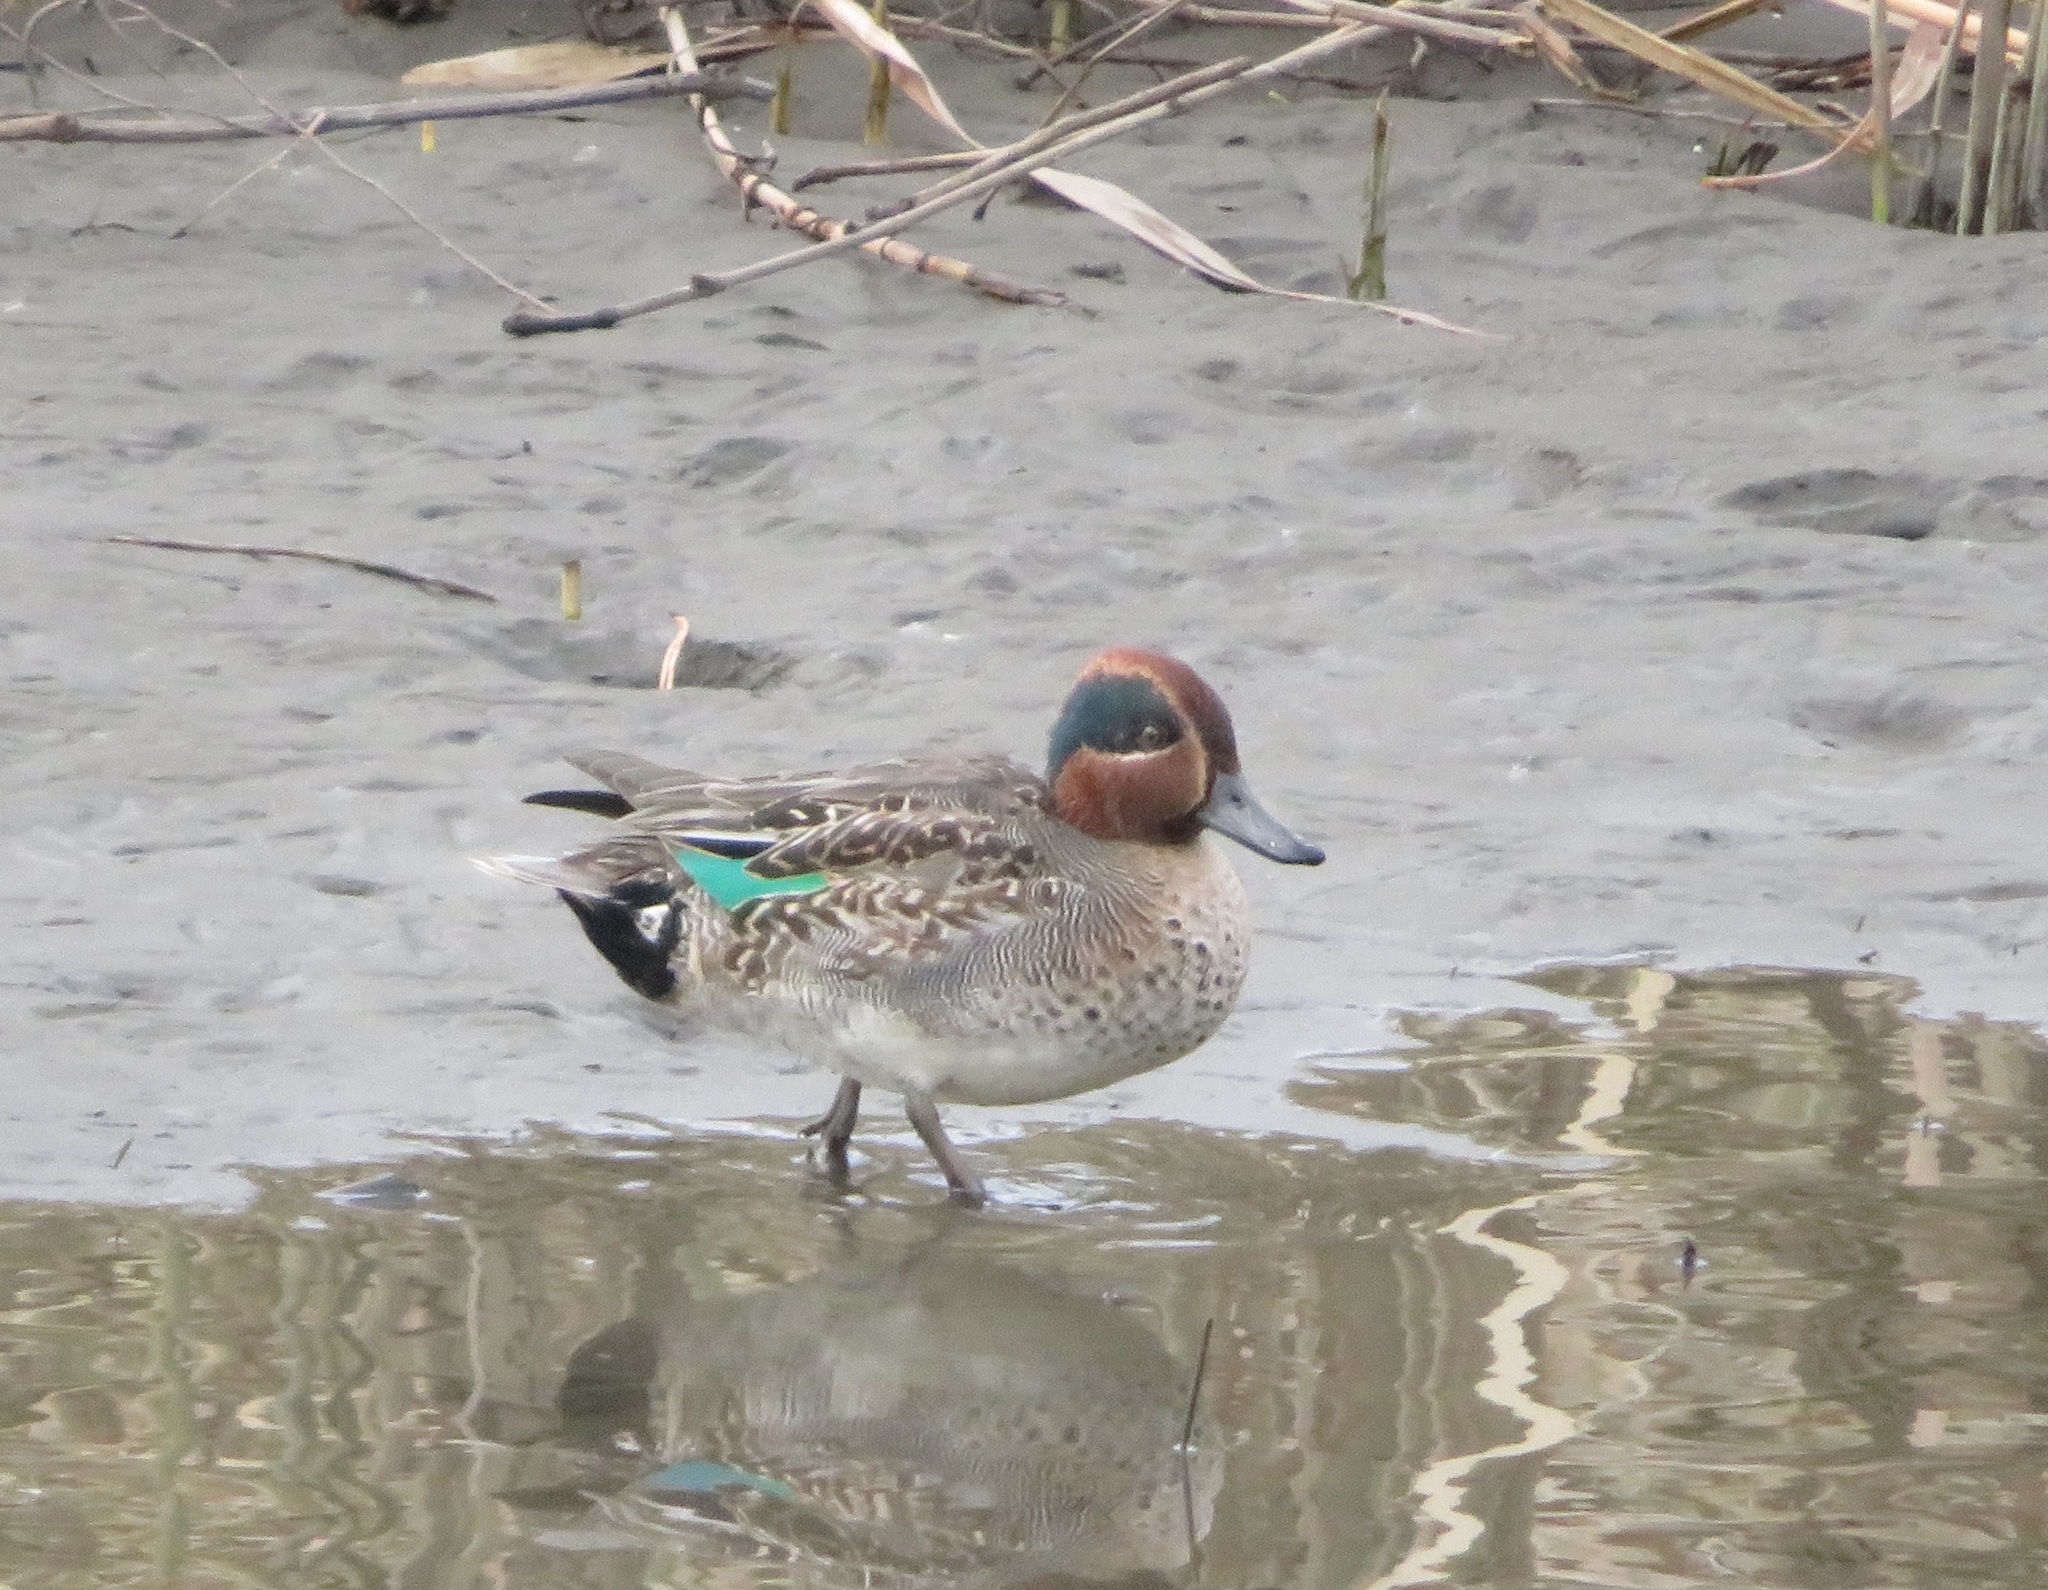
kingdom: Animalia
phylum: Chordata
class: Aves
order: Anseriformes
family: Anatidae
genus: Anas
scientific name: Anas crecca
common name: Eurasian teal
